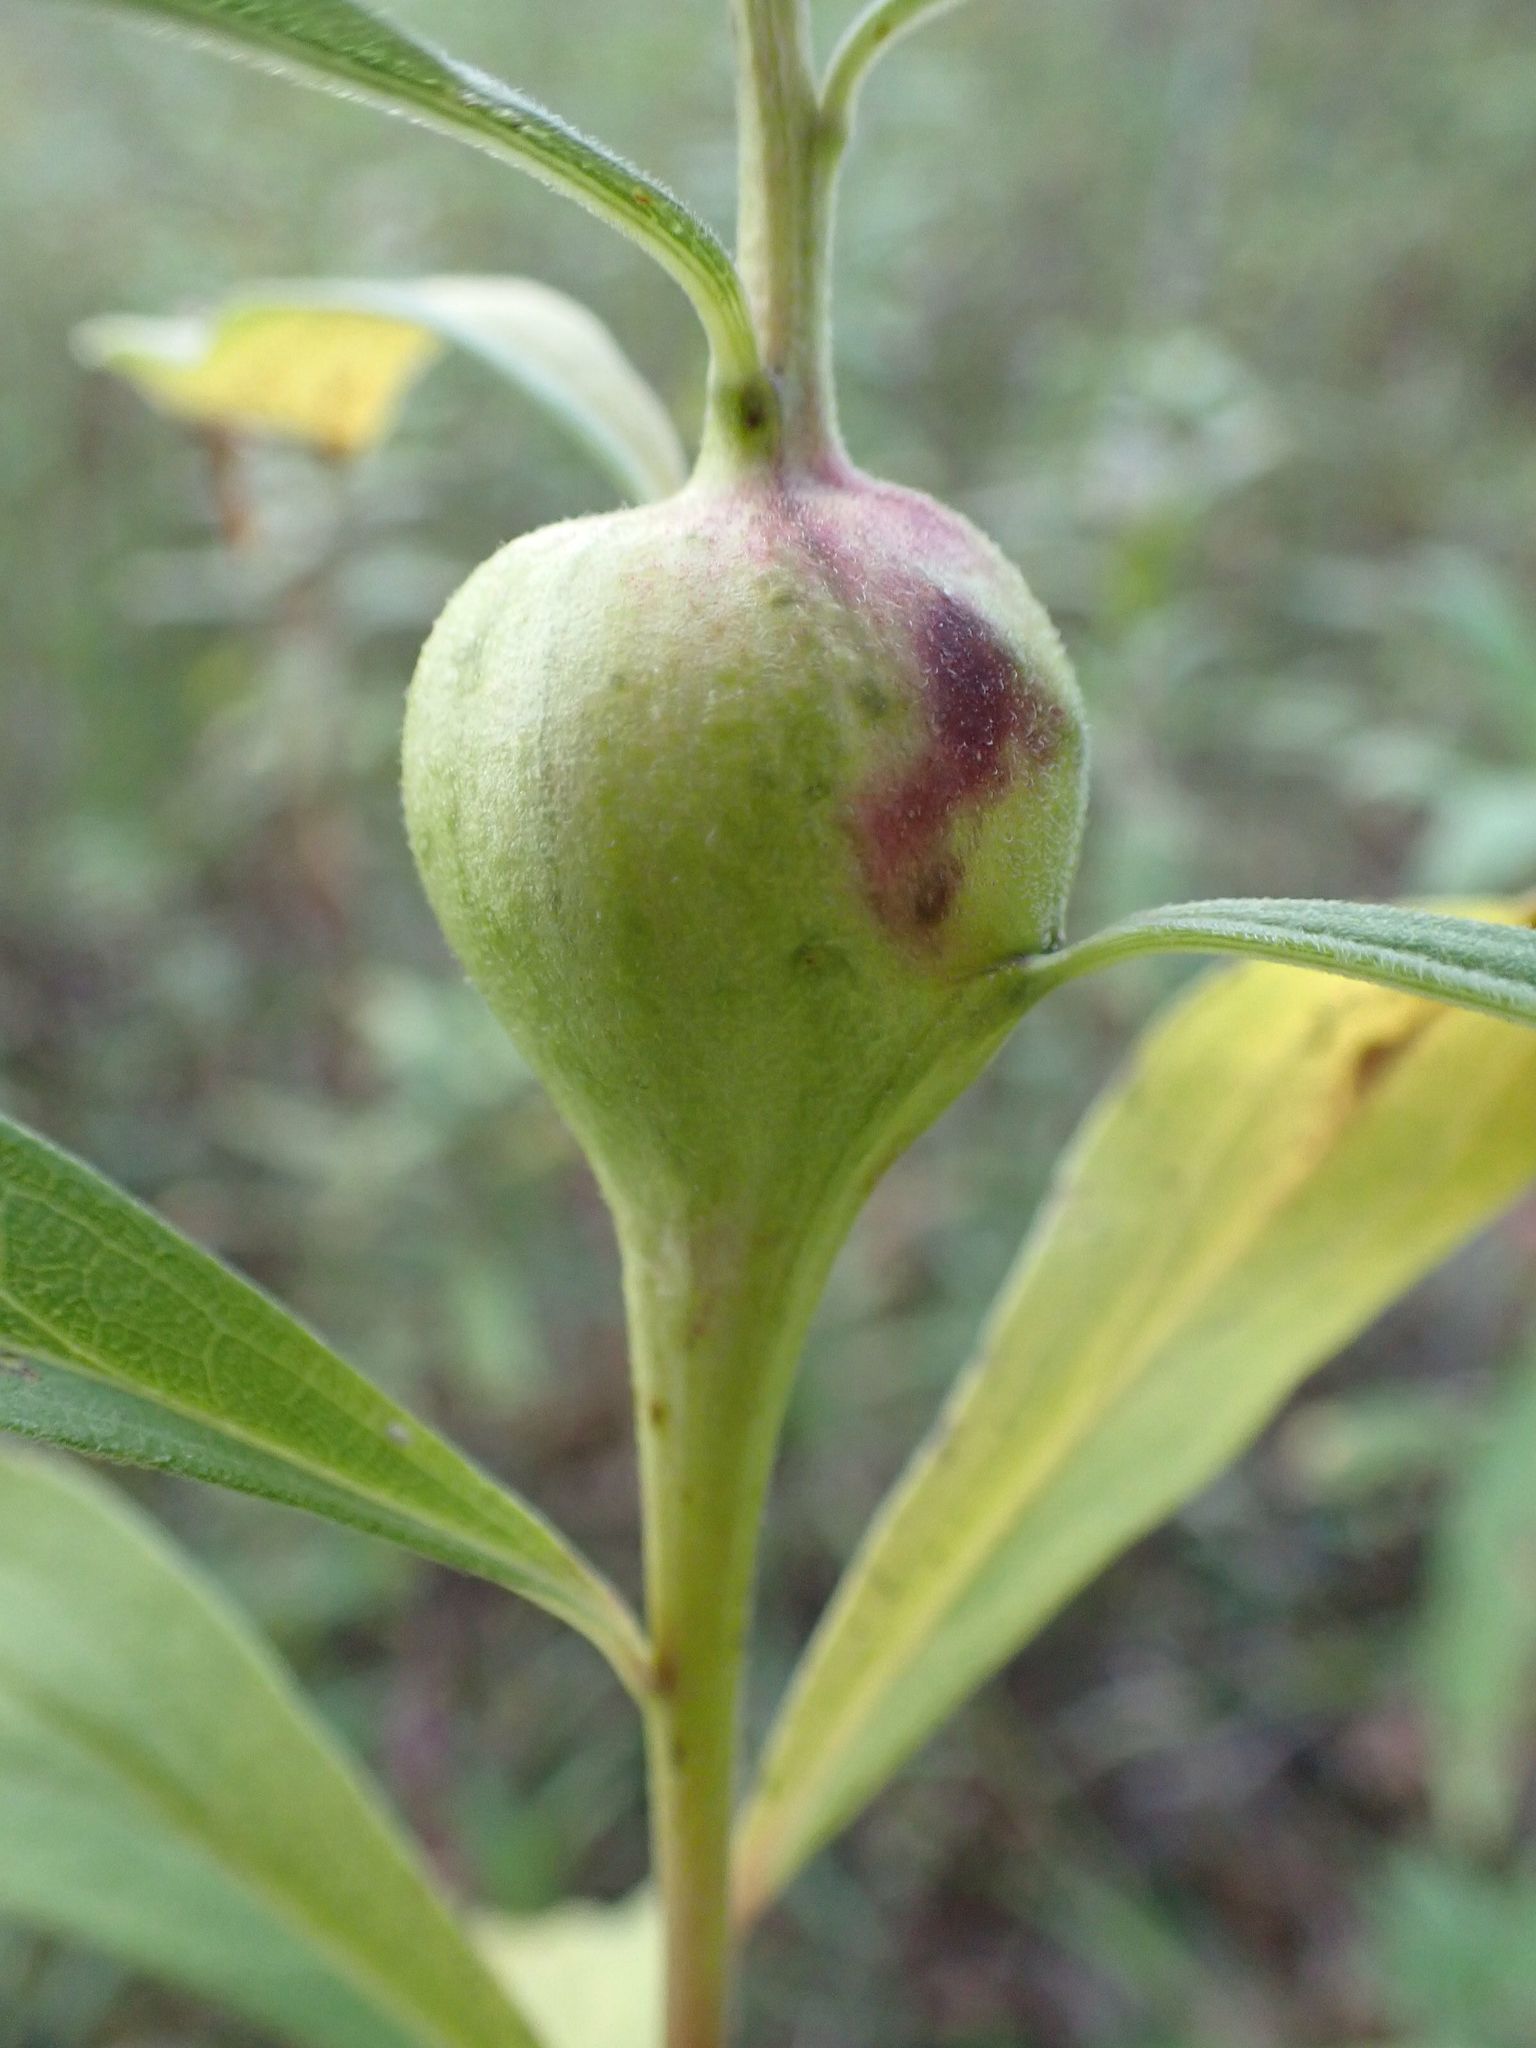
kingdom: Animalia
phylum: Arthropoda
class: Insecta
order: Diptera
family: Tephritidae
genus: Eurosta
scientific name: Eurosta solidaginis
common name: Goldenrod gall fly
